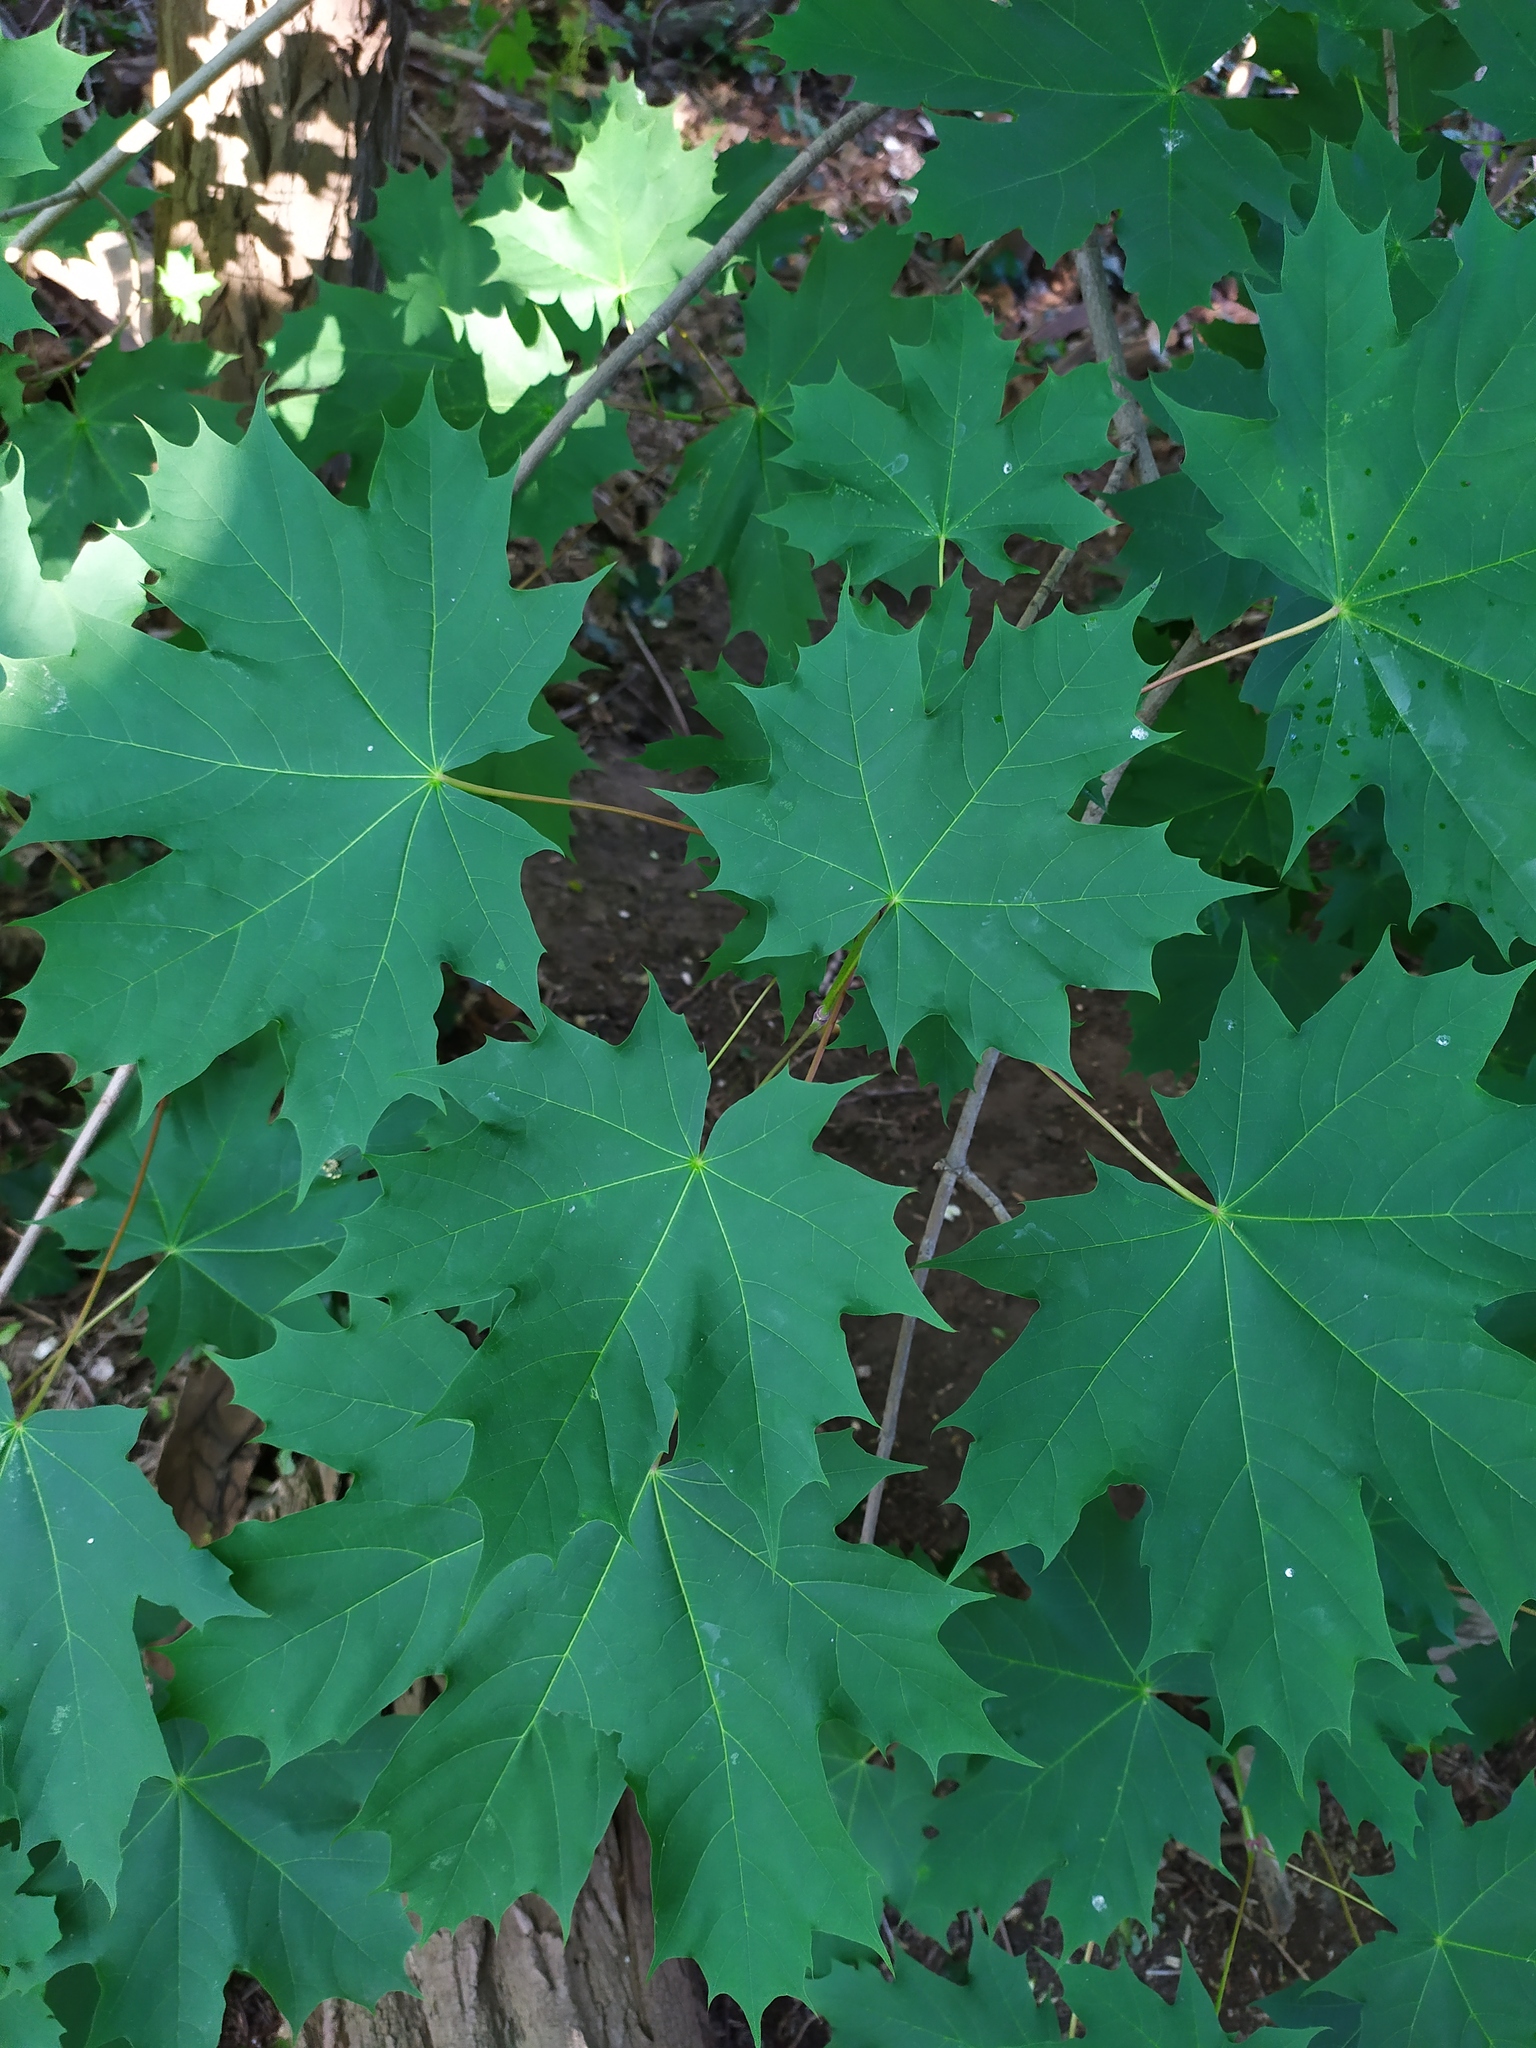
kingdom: Plantae
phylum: Tracheophyta
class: Magnoliopsida
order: Sapindales
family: Sapindaceae
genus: Acer
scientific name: Acer platanoides
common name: Norway maple
